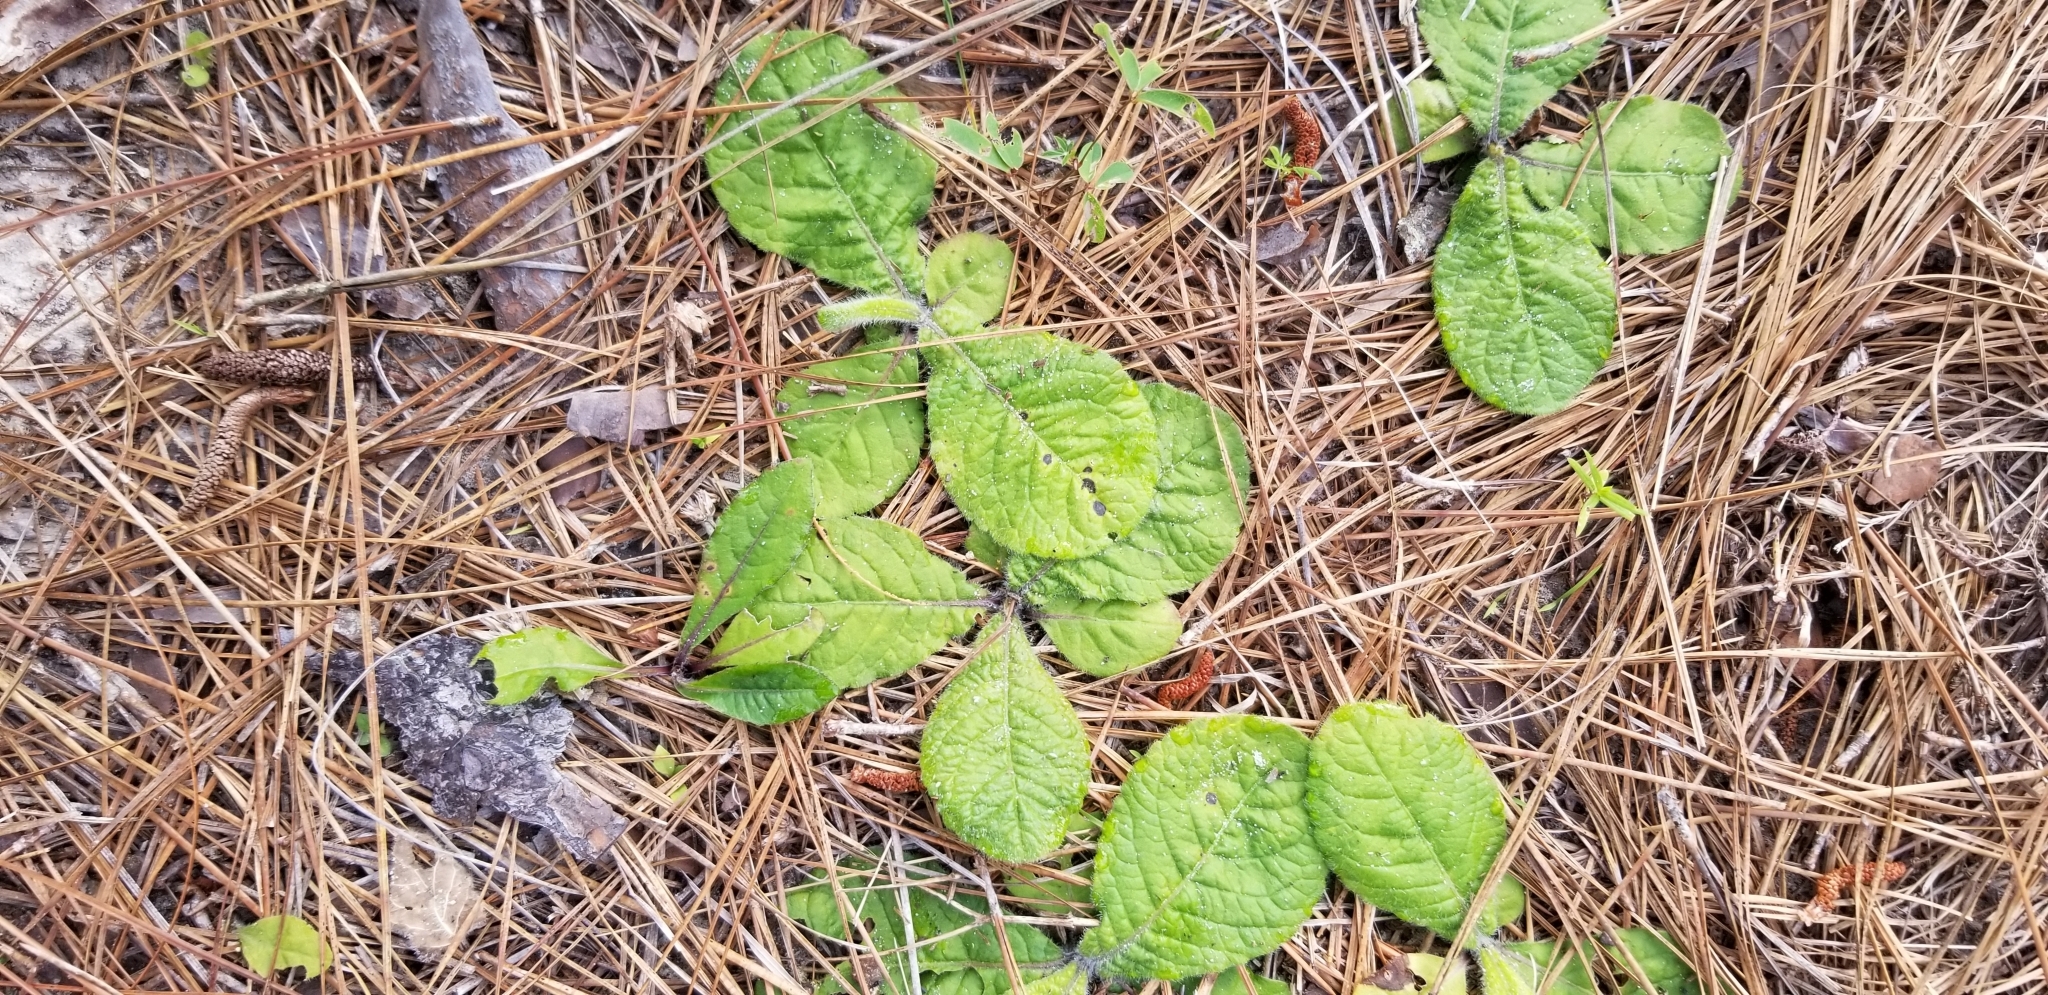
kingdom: Plantae
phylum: Tracheophyta
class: Magnoliopsida
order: Asterales
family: Asteraceae
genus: Elephantopus
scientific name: Elephantopus tomentosus
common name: Tobacco-weed
